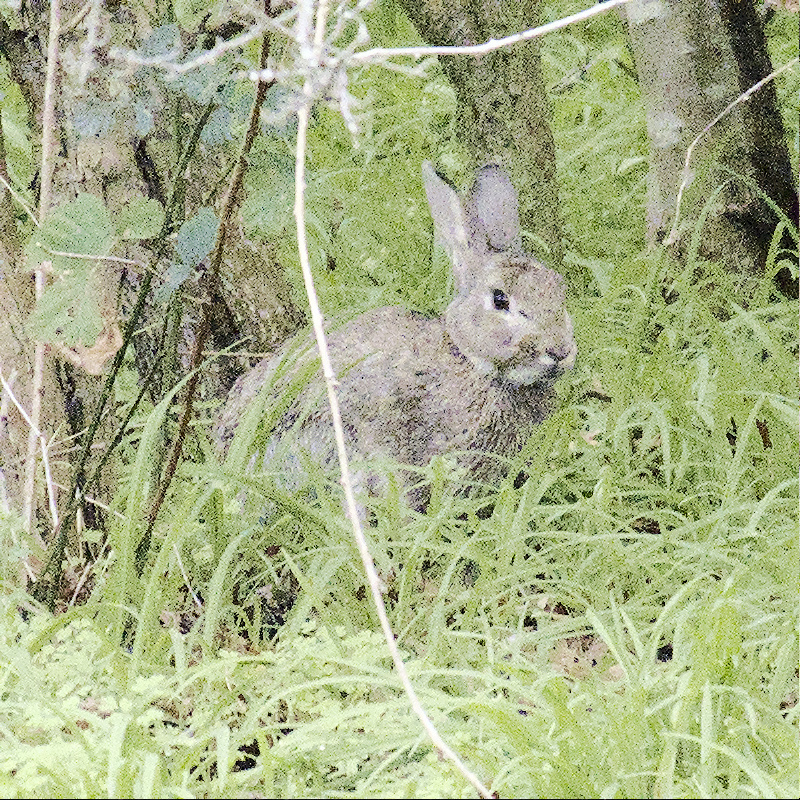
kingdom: Animalia
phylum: Chordata
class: Mammalia
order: Lagomorpha
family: Leporidae
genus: Oryctolagus
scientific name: Oryctolagus cuniculus
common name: European rabbit
